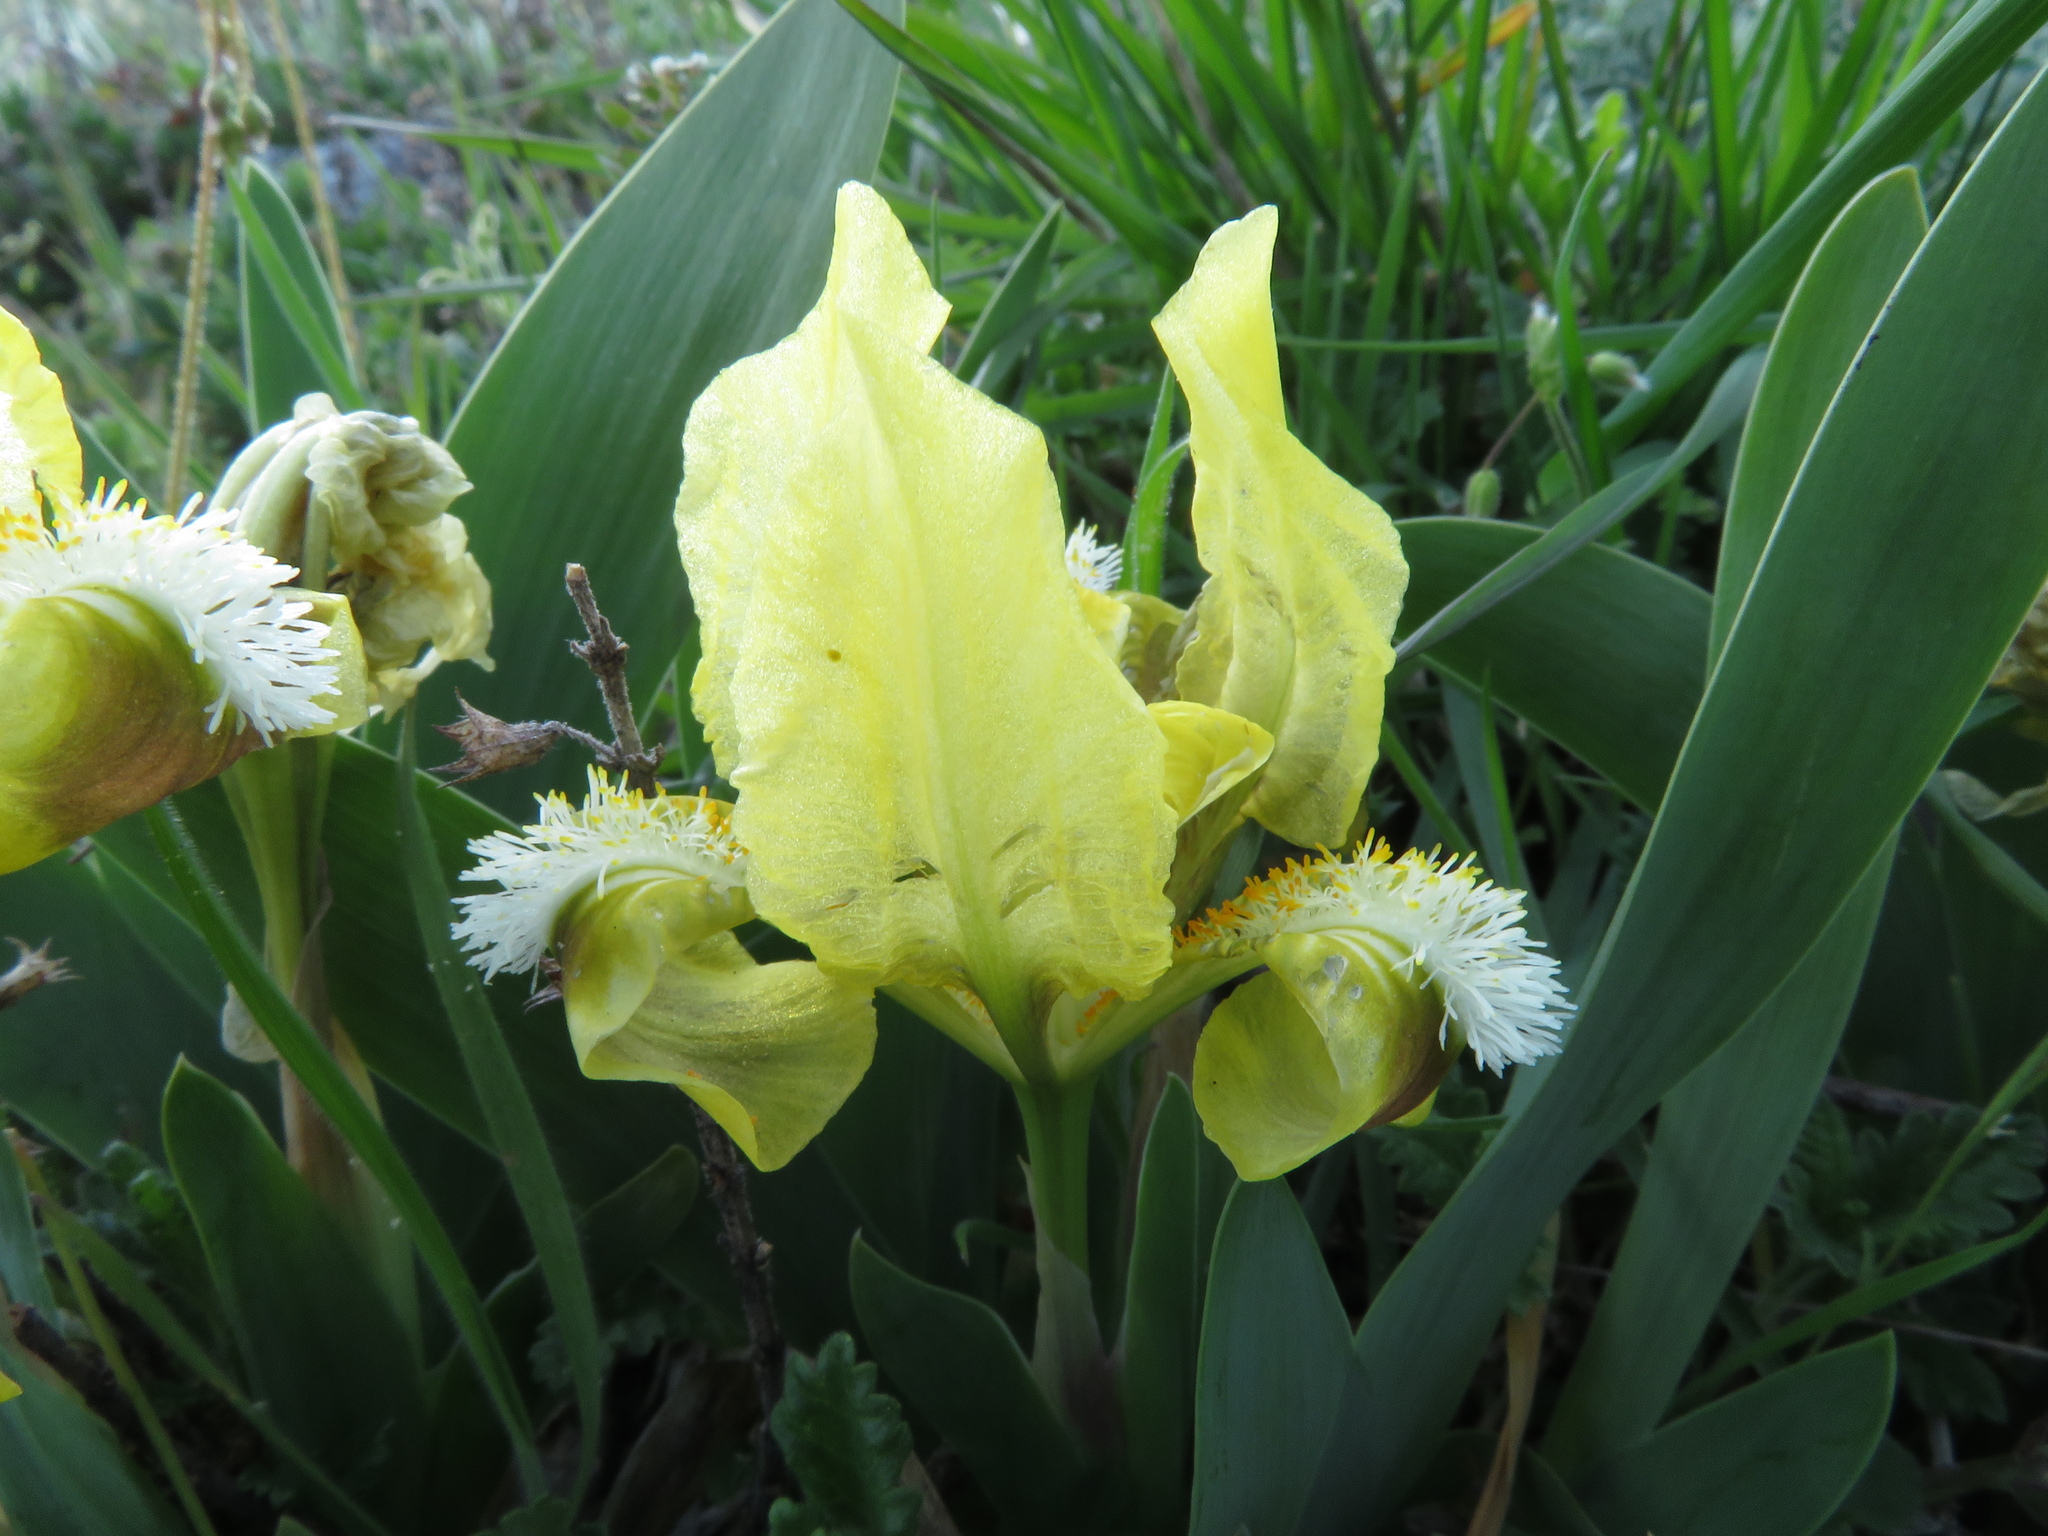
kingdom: Plantae
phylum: Tracheophyta
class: Liliopsida
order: Asparagales
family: Iridaceae
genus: Iris
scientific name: Iris pumila
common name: Dwarf iris
